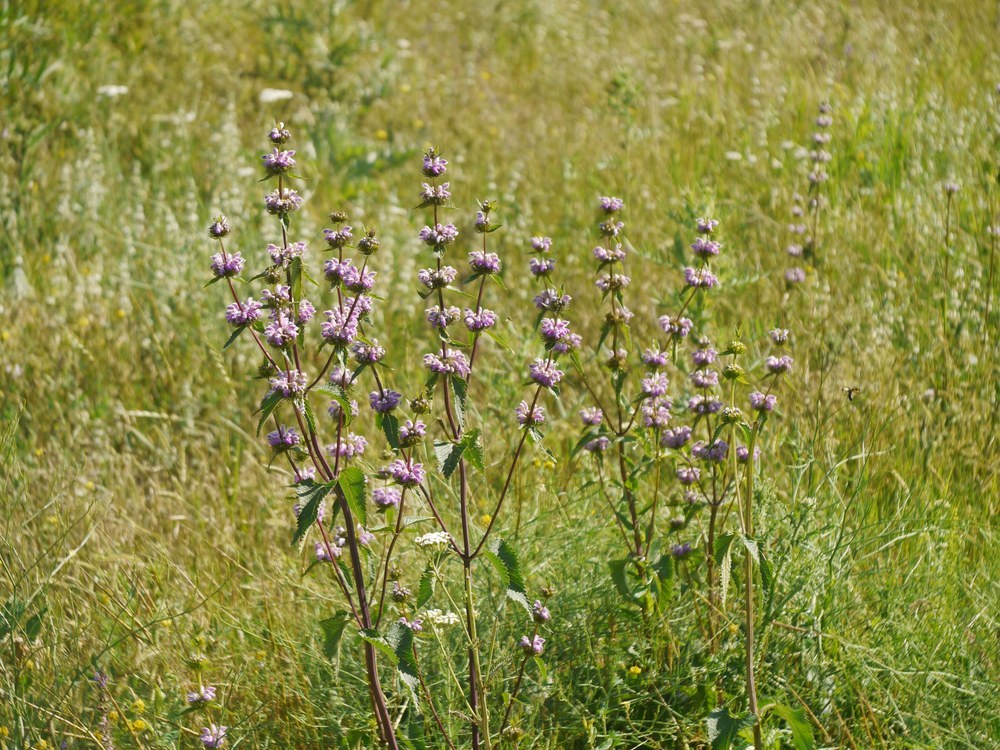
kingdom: Plantae
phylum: Tracheophyta
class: Magnoliopsida
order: Lamiales
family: Lamiaceae
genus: Phlomoides
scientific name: Phlomoides tuberosa
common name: Tuberous jerusalem sage
